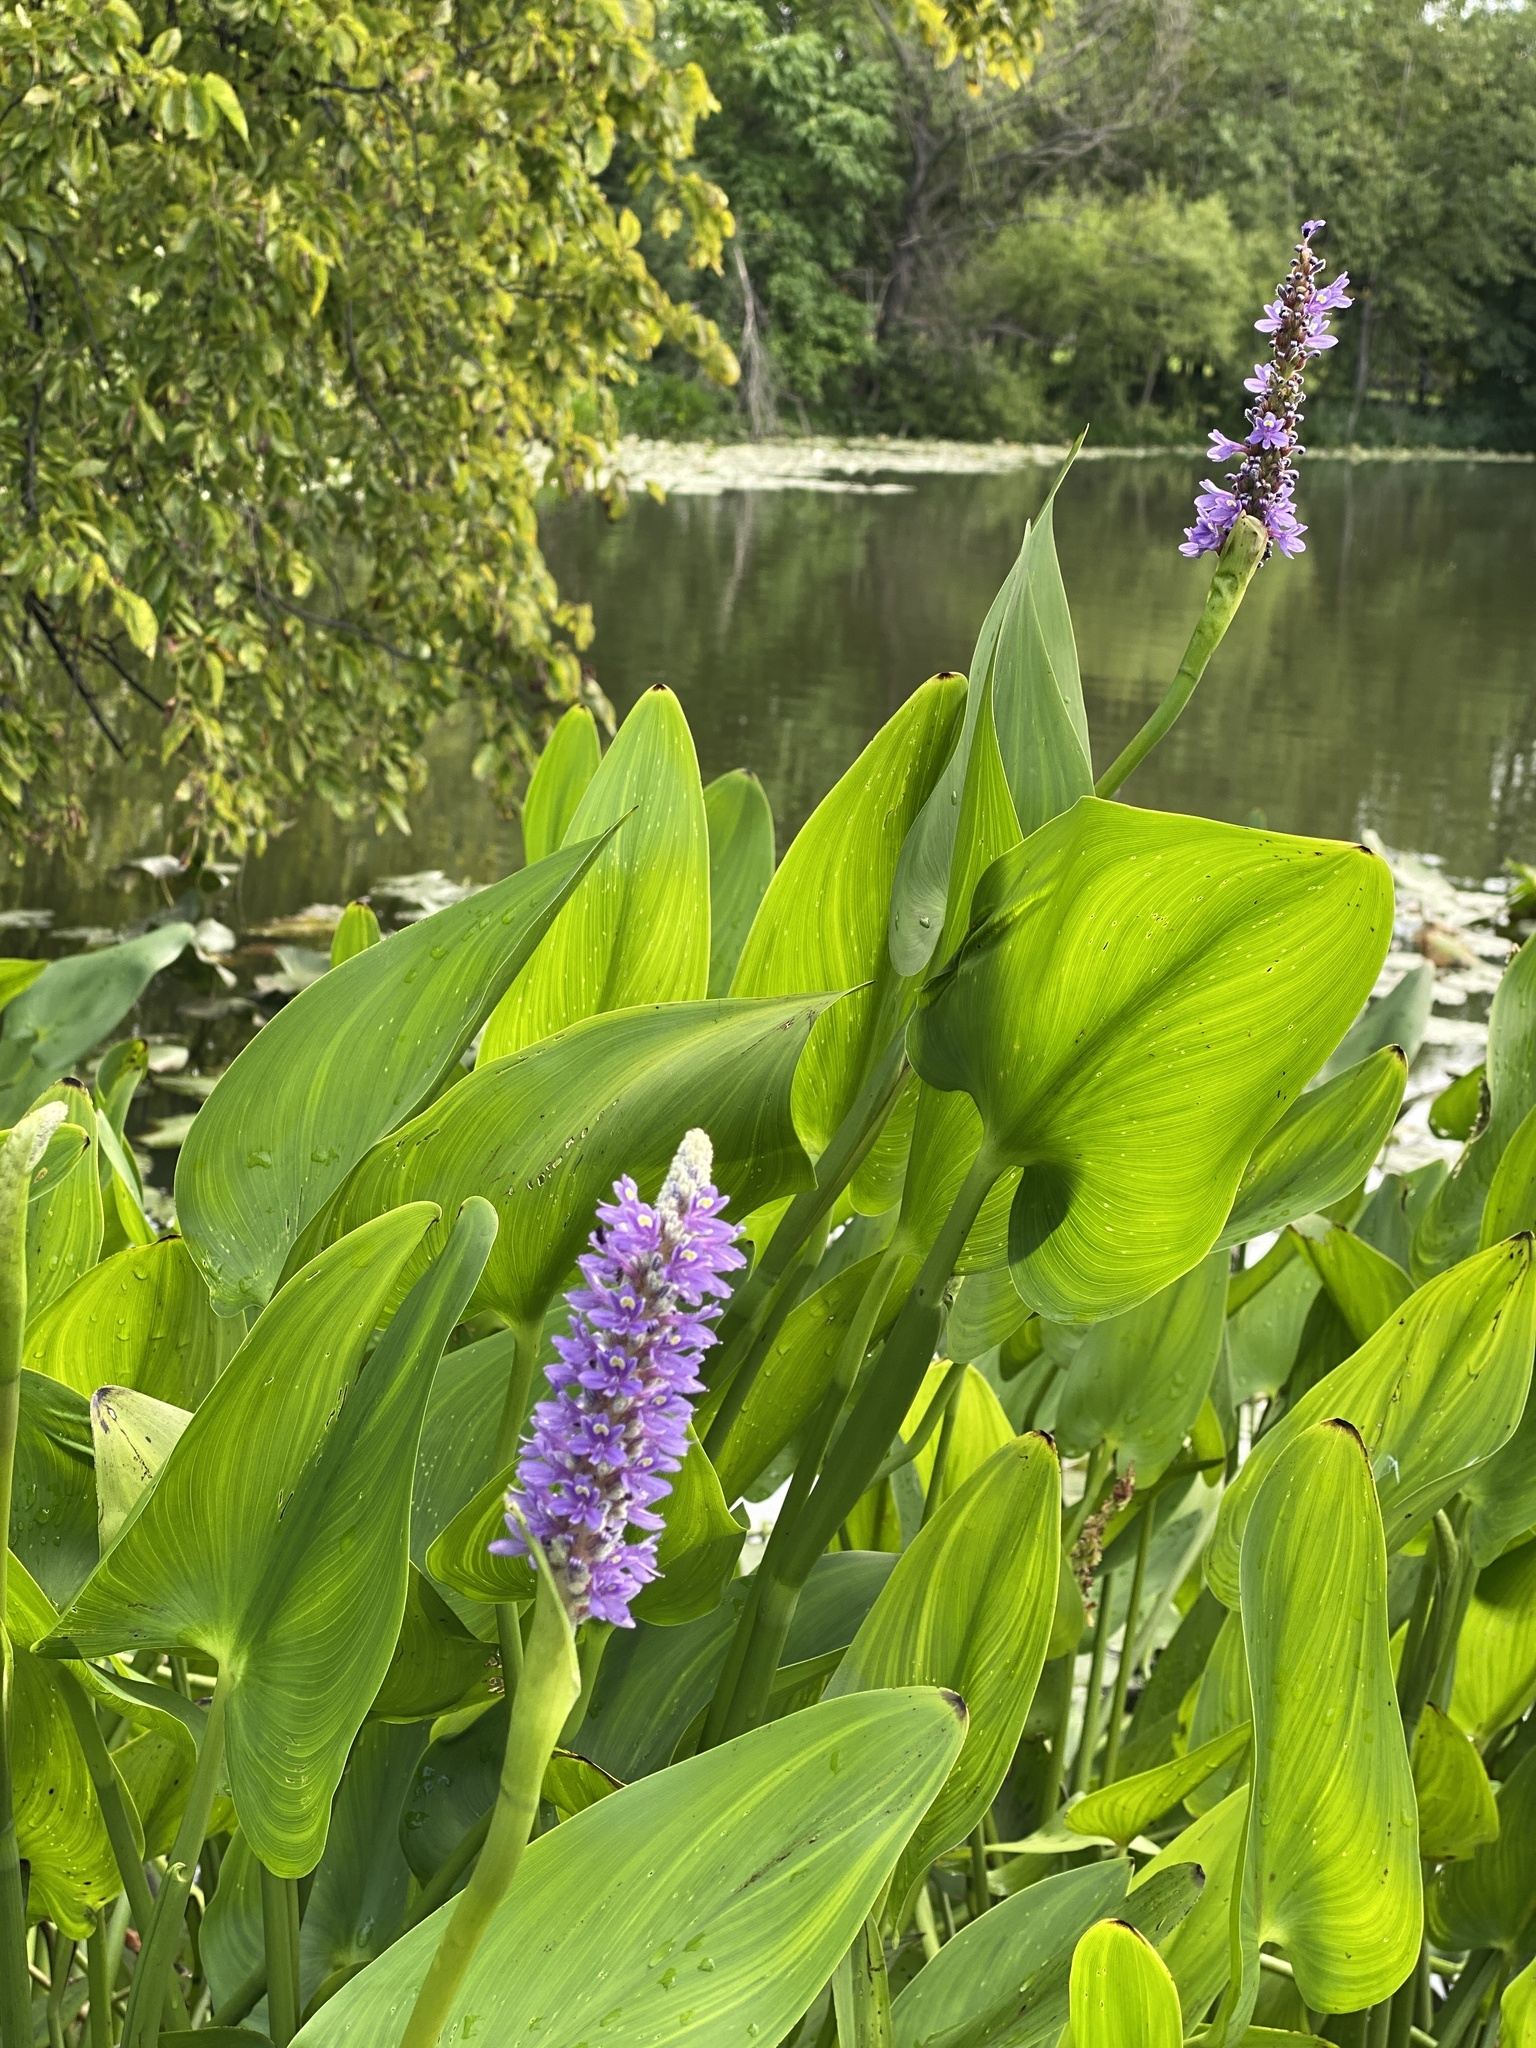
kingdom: Plantae
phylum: Tracheophyta
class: Liliopsida
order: Commelinales
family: Pontederiaceae
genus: Pontederia
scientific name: Pontederia cordata
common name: Pickerelweed
